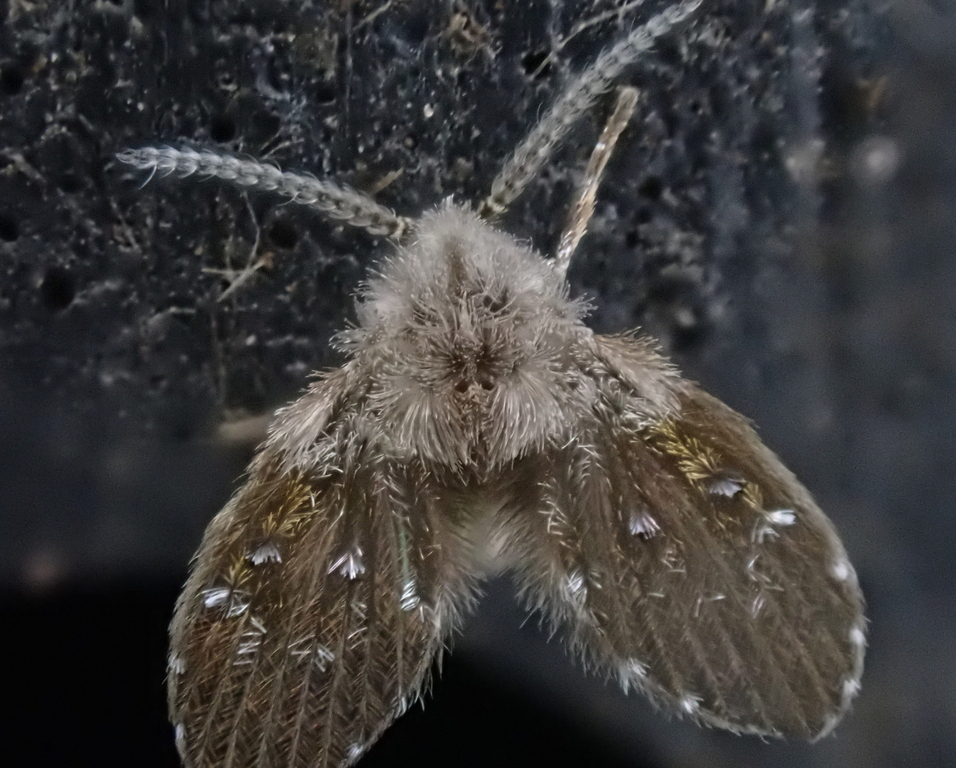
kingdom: Animalia
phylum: Arthropoda
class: Insecta
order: Diptera
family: Psychodidae
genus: Clogmia
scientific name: Clogmia albipunctatus
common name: White-spotted moth fly
